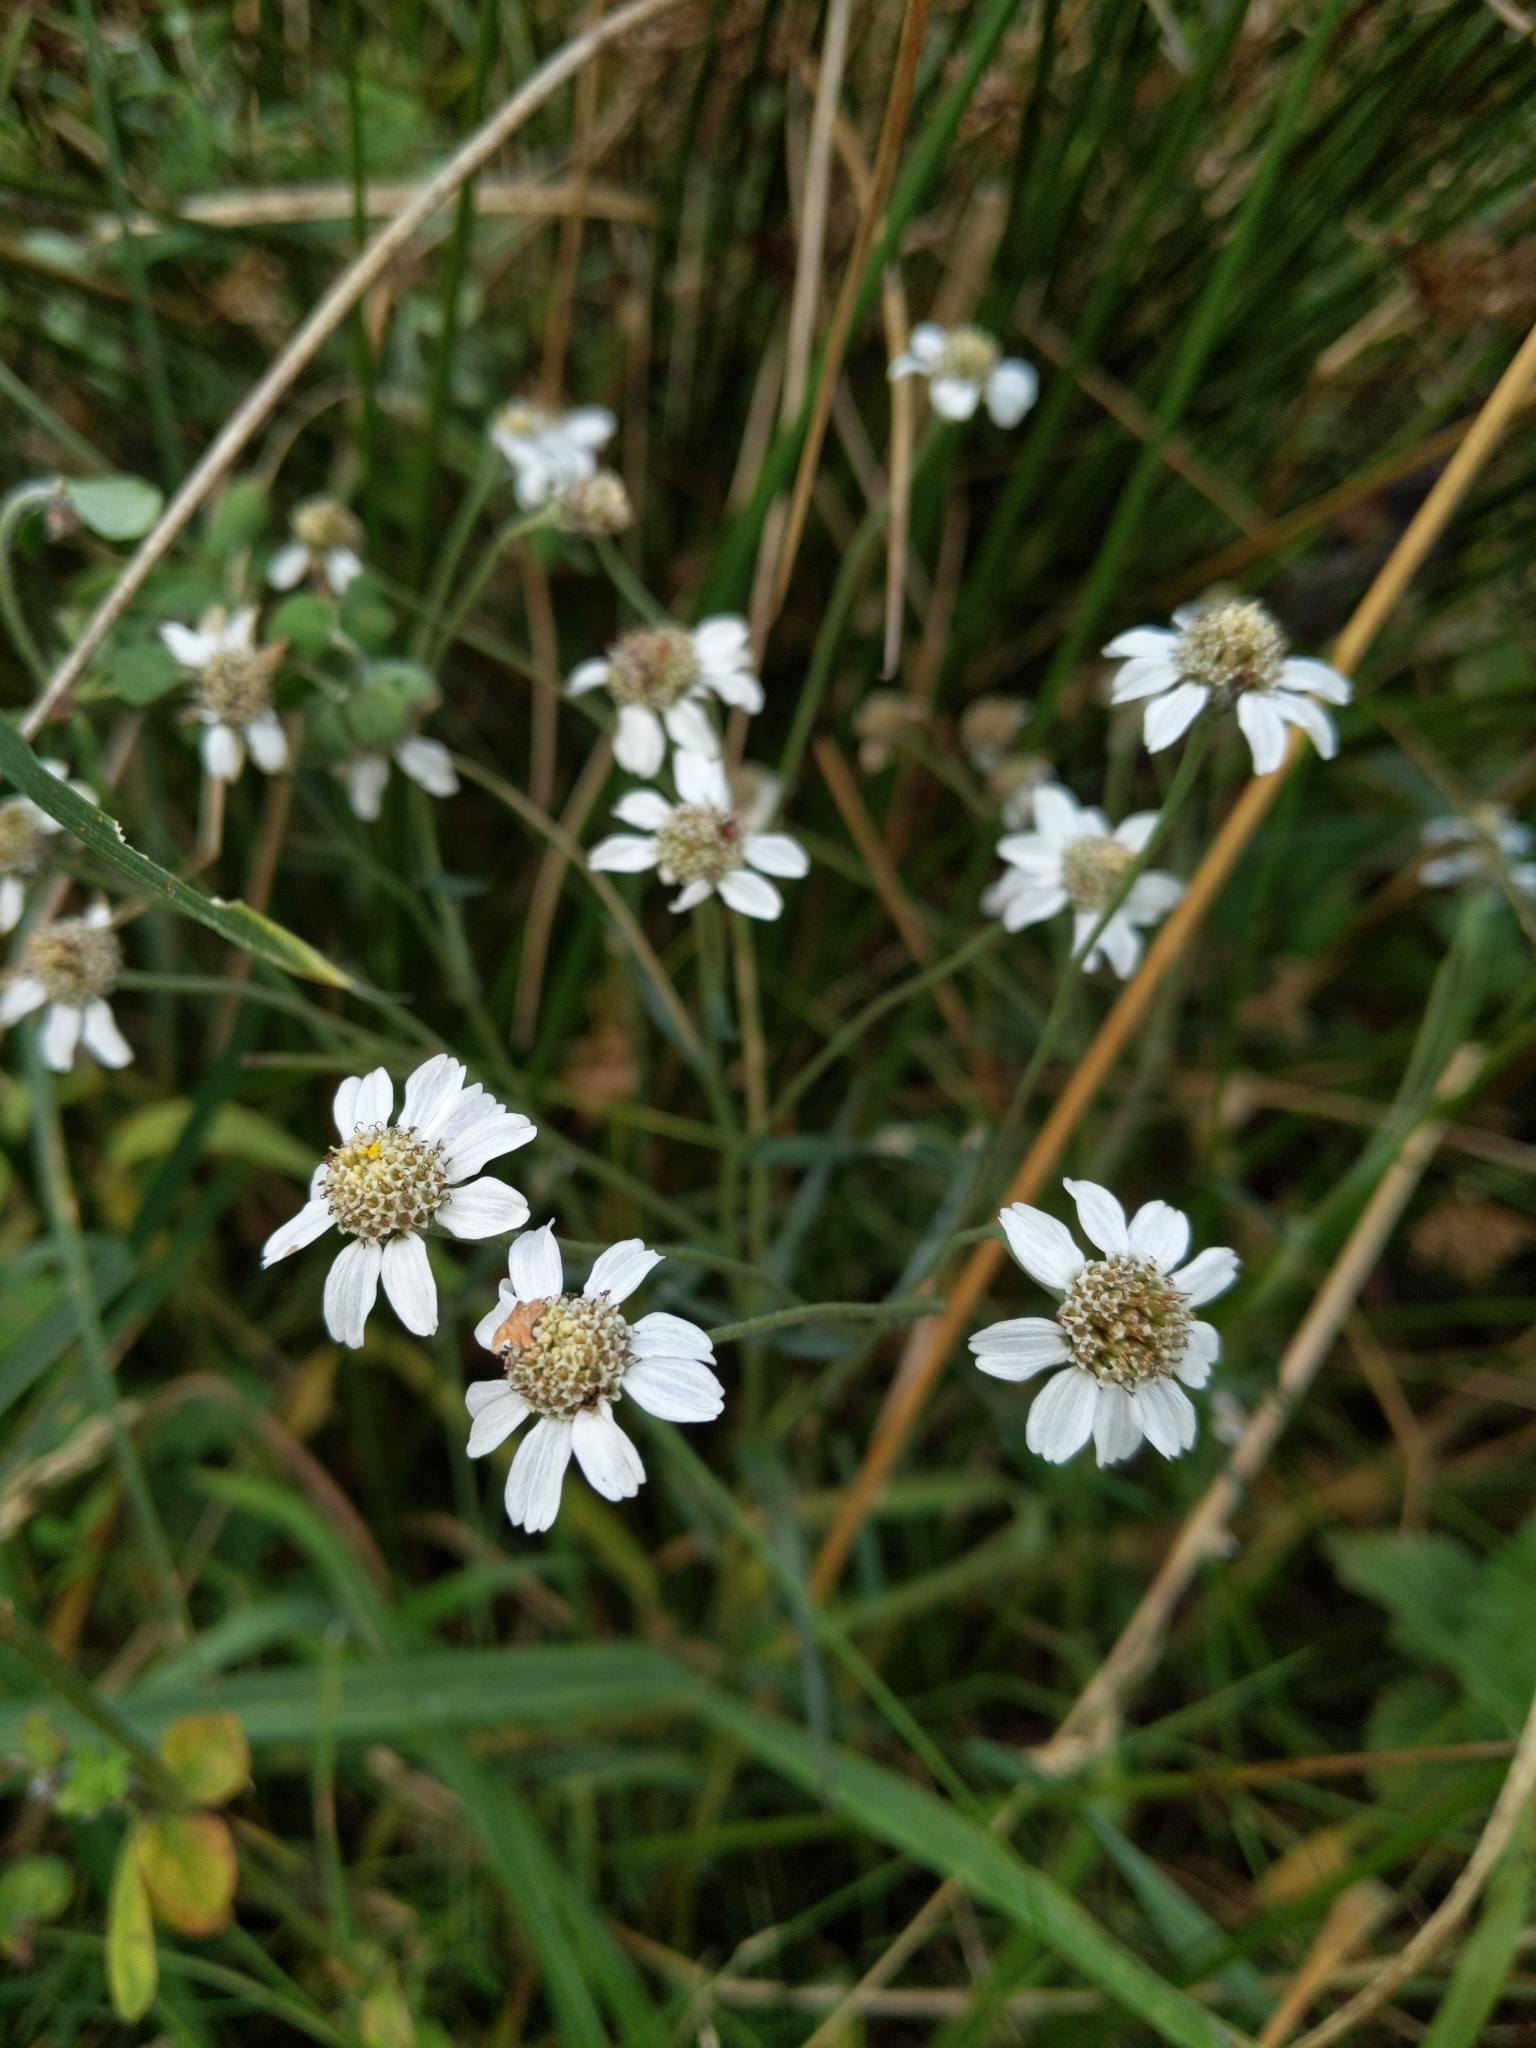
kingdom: Plantae
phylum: Tracheophyta
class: Magnoliopsida
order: Asterales
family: Asteraceae
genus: Achillea
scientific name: Achillea ptarmica
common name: Sneezeweed
